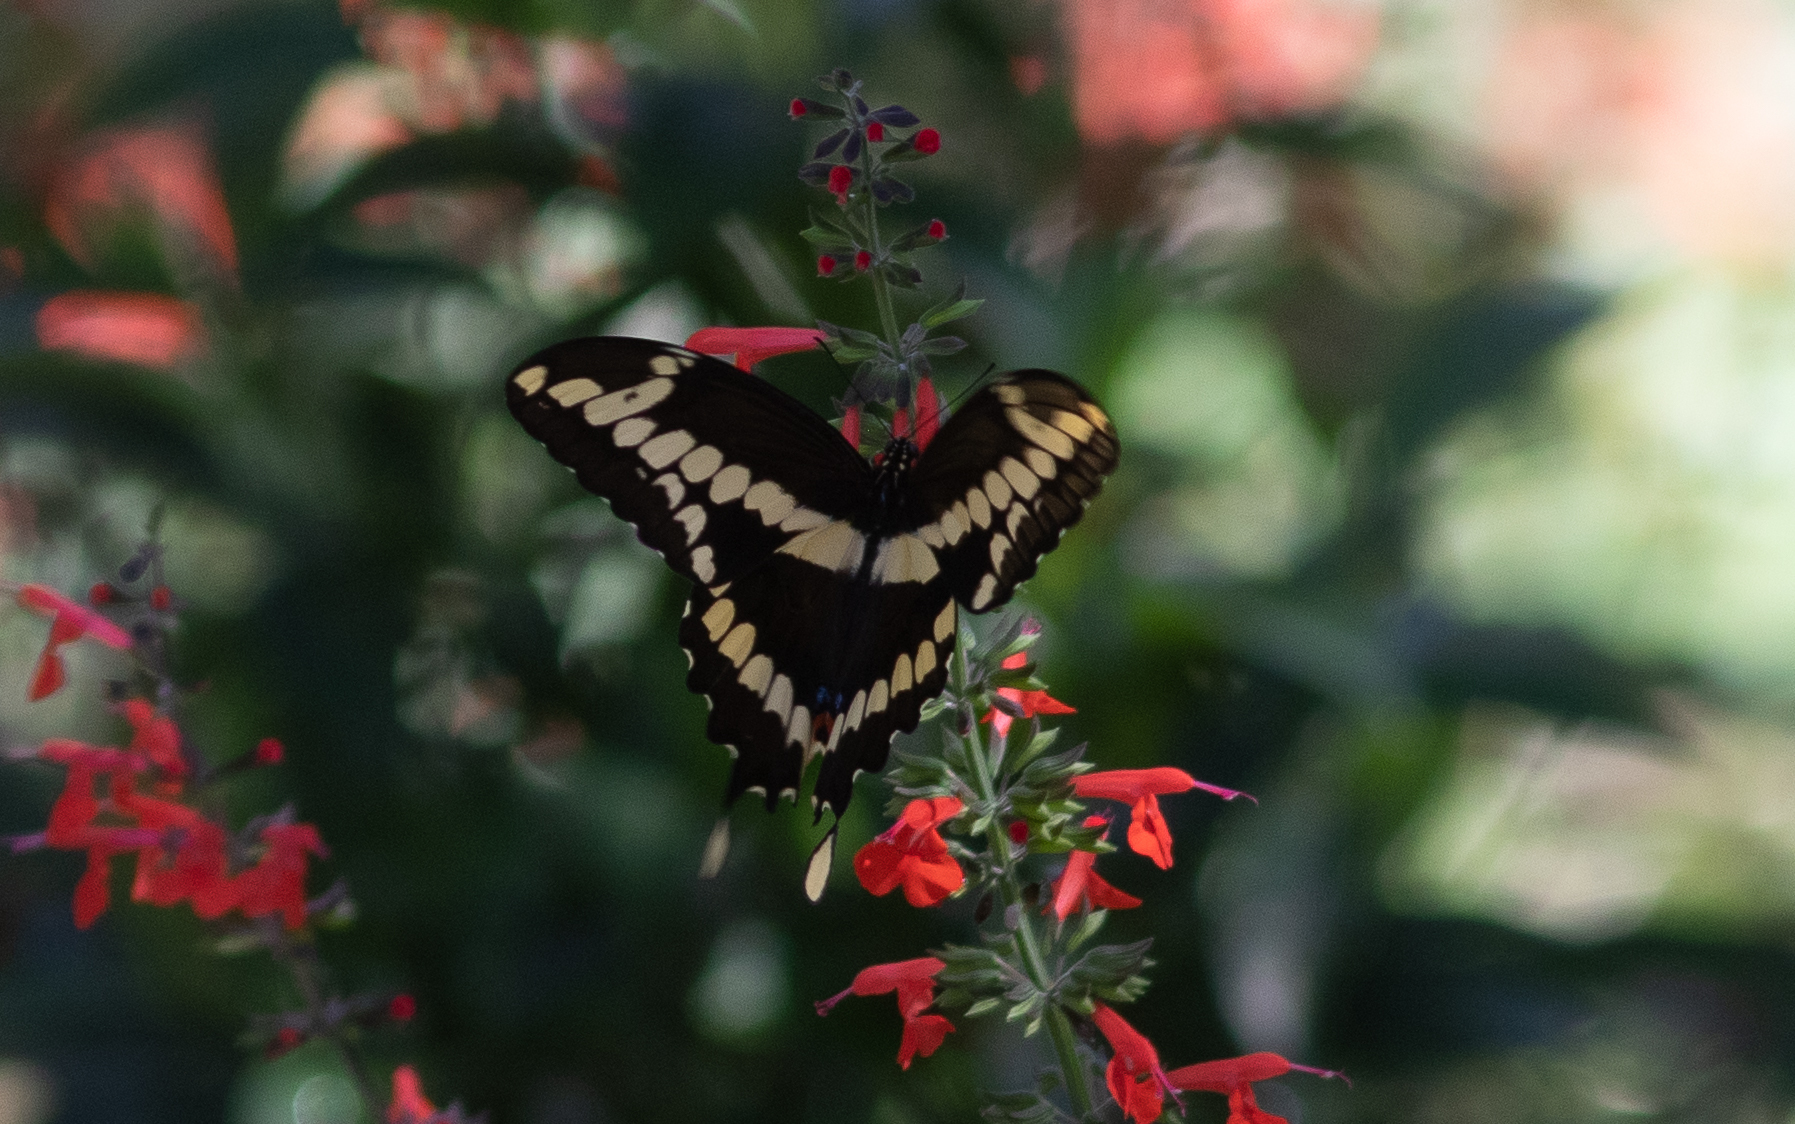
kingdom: Animalia
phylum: Arthropoda
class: Insecta
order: Lepidoptera
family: Papilionidae
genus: Papilio
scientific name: Papilio cresphontes
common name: Giant swallowtail
